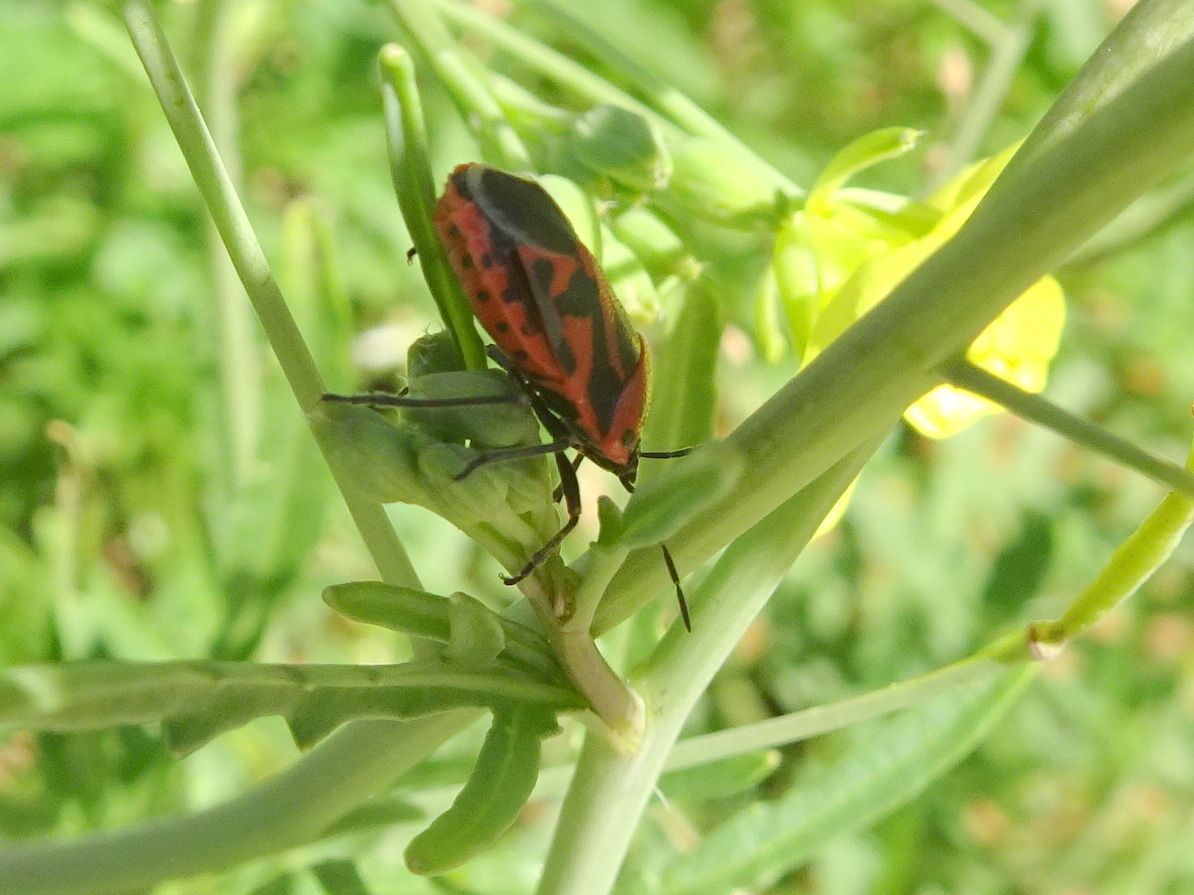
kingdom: Animalia
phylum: Arthropoda
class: Insecta
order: Hemiptera
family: Pentatomidae
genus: Eurydema
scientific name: Eurydema ornata
